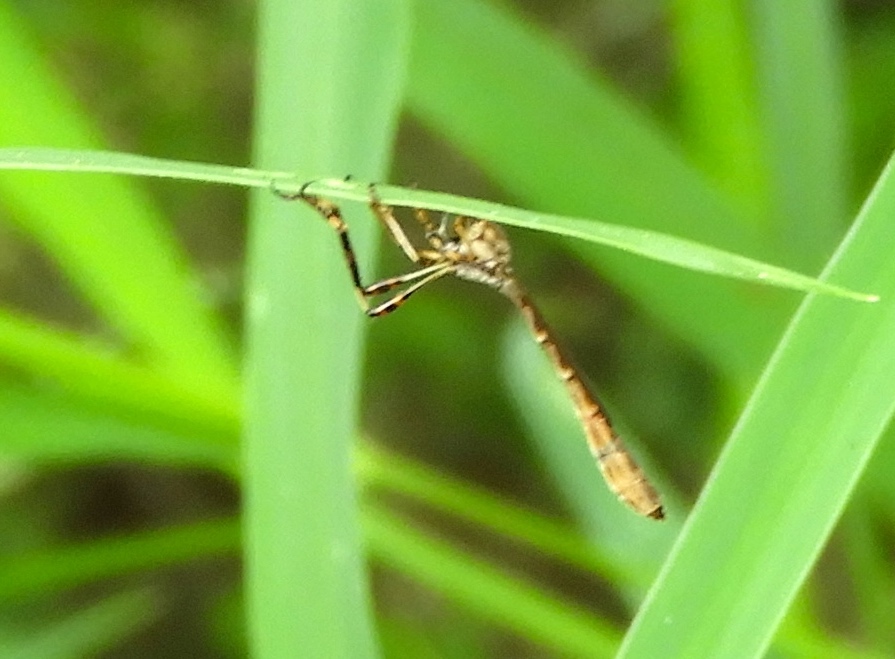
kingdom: Animalia
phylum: Arthropoda
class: Insecta
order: Diptera
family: Asilidae
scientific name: Asilidae
